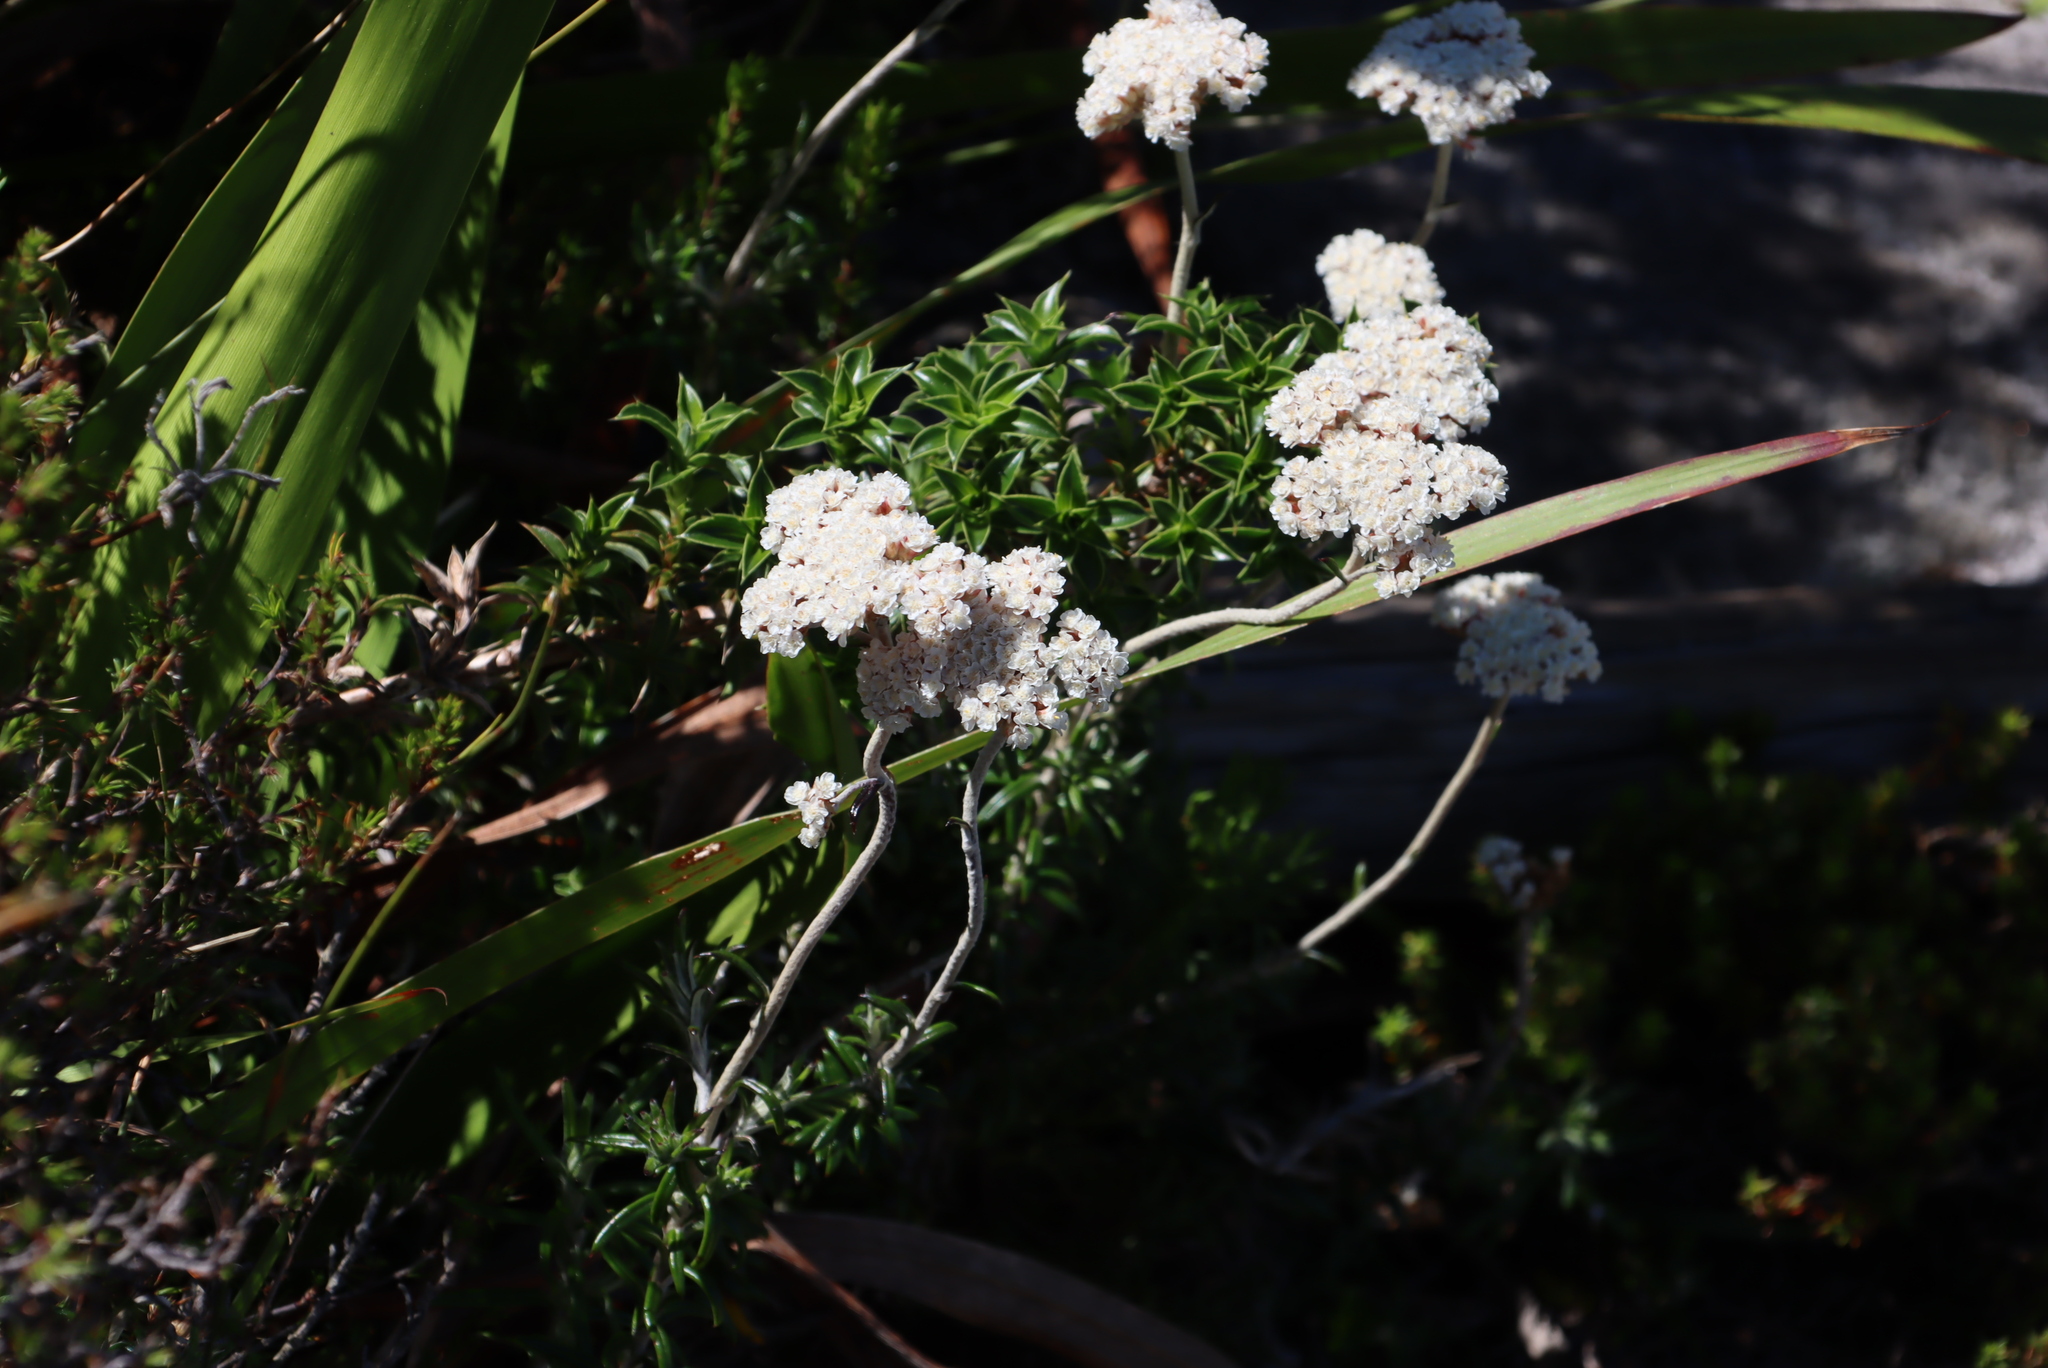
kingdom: Plantae
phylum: Tracheophyta
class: Magnoliopsida
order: Asterales
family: Asteraceae
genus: Anaxeton
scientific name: Anaxeton arborescens
